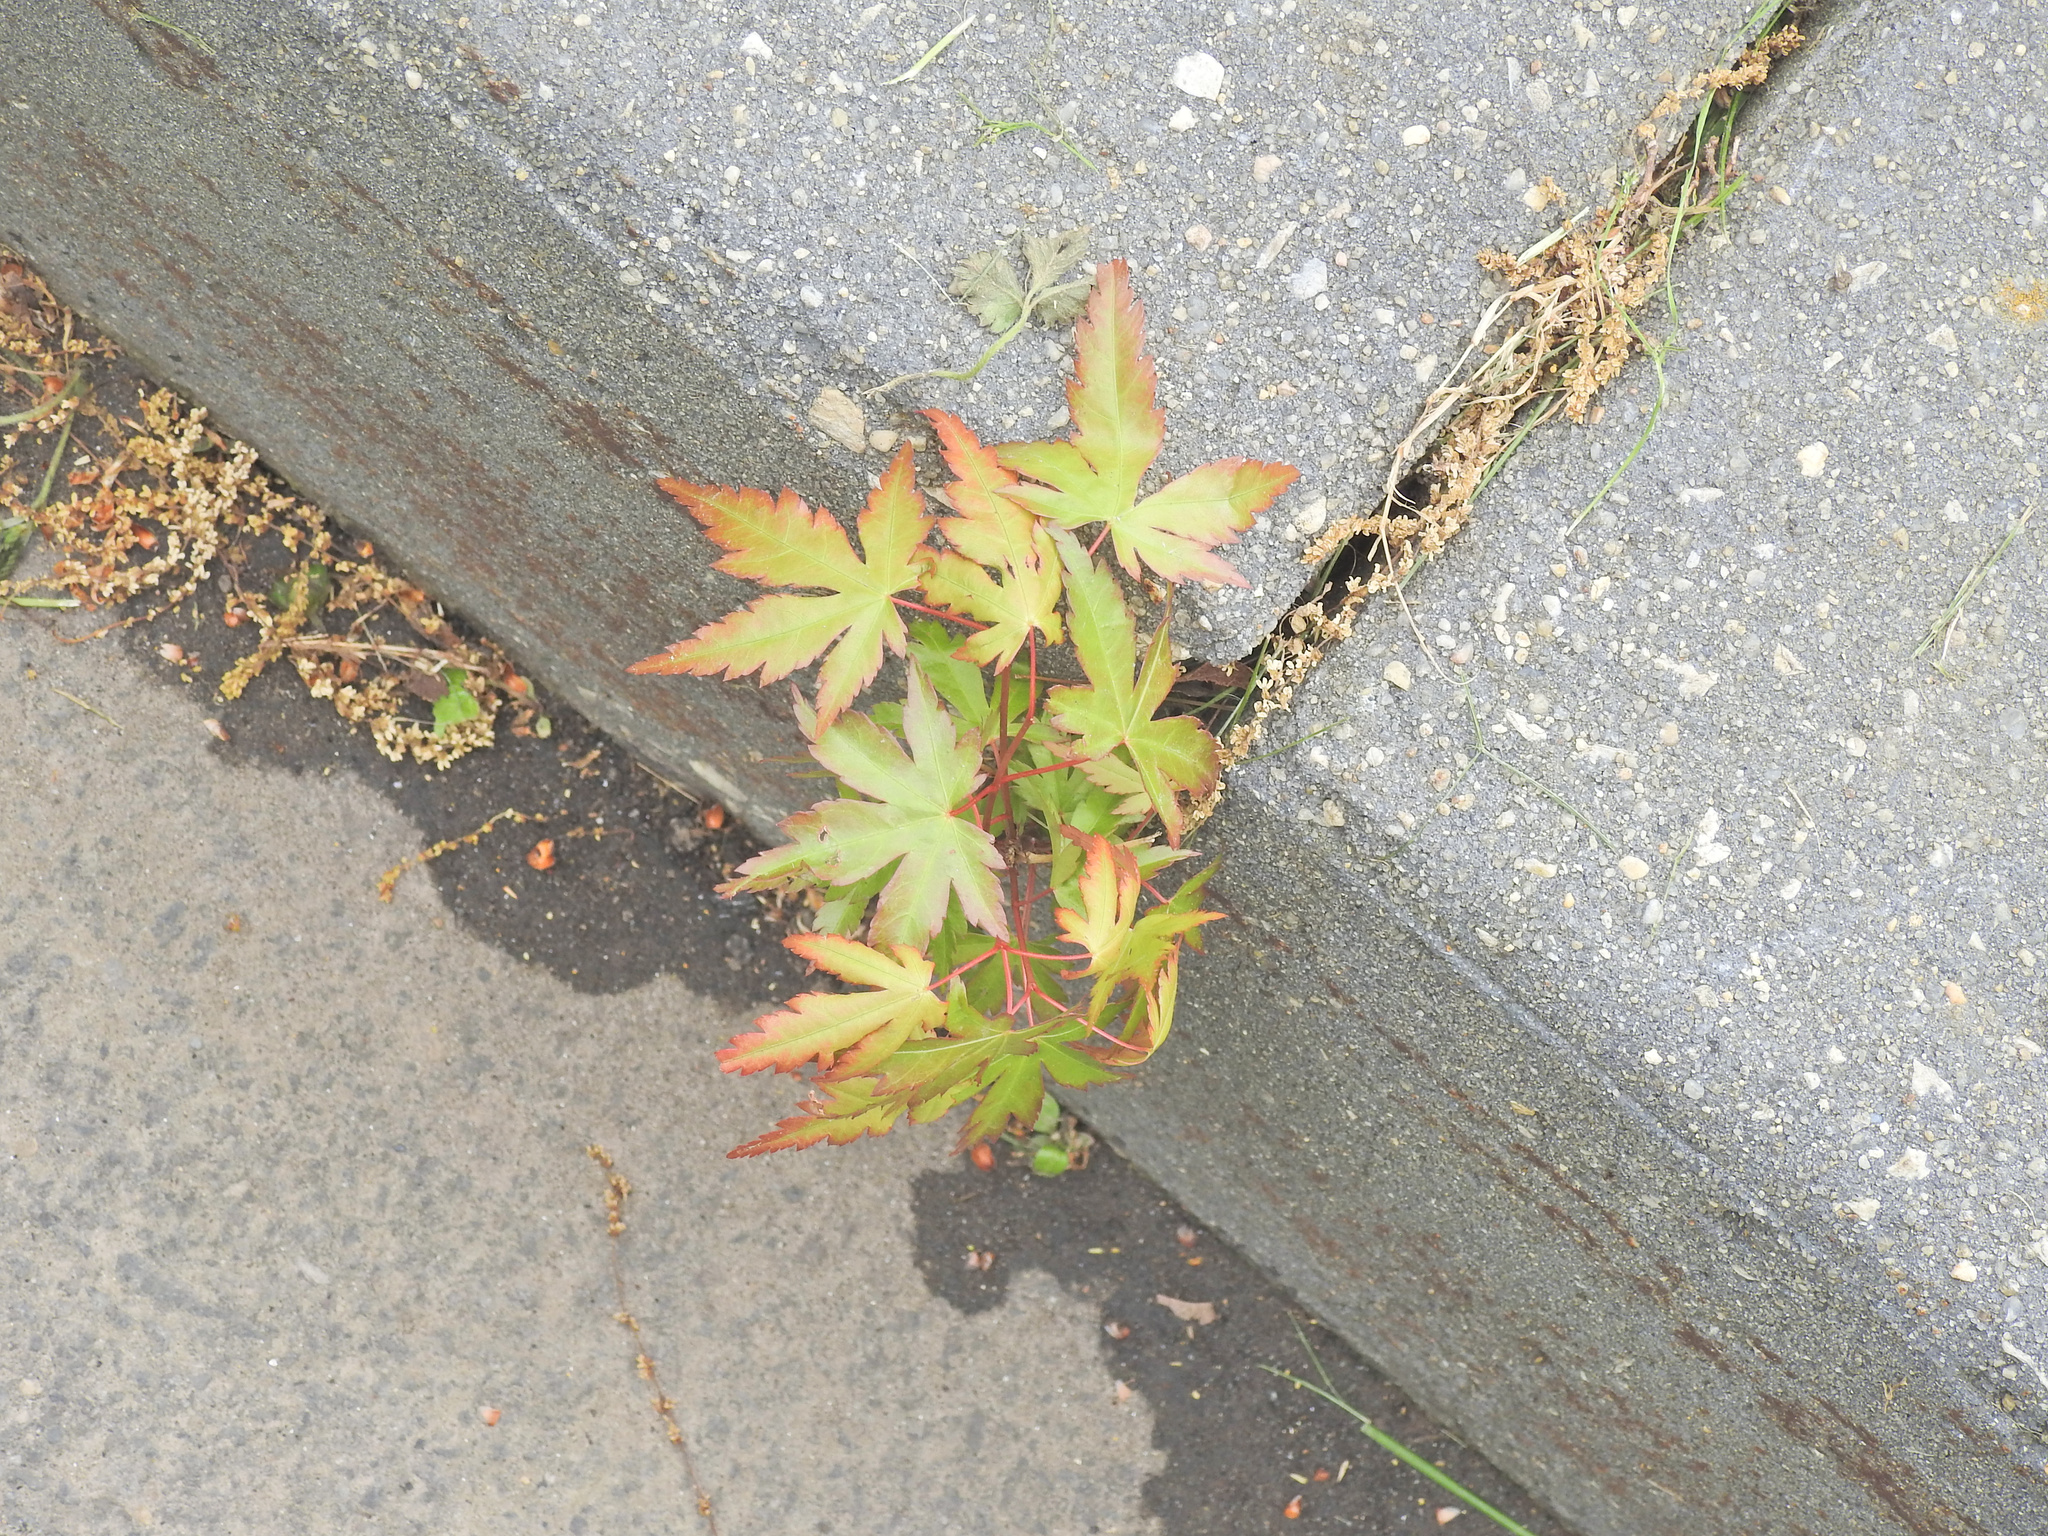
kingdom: Plantae
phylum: Tracheophyta
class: Magnoliopsida
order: Sapindales
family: Sapindaceae
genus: Acer
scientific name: Acer palmatum
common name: Japanese maple
